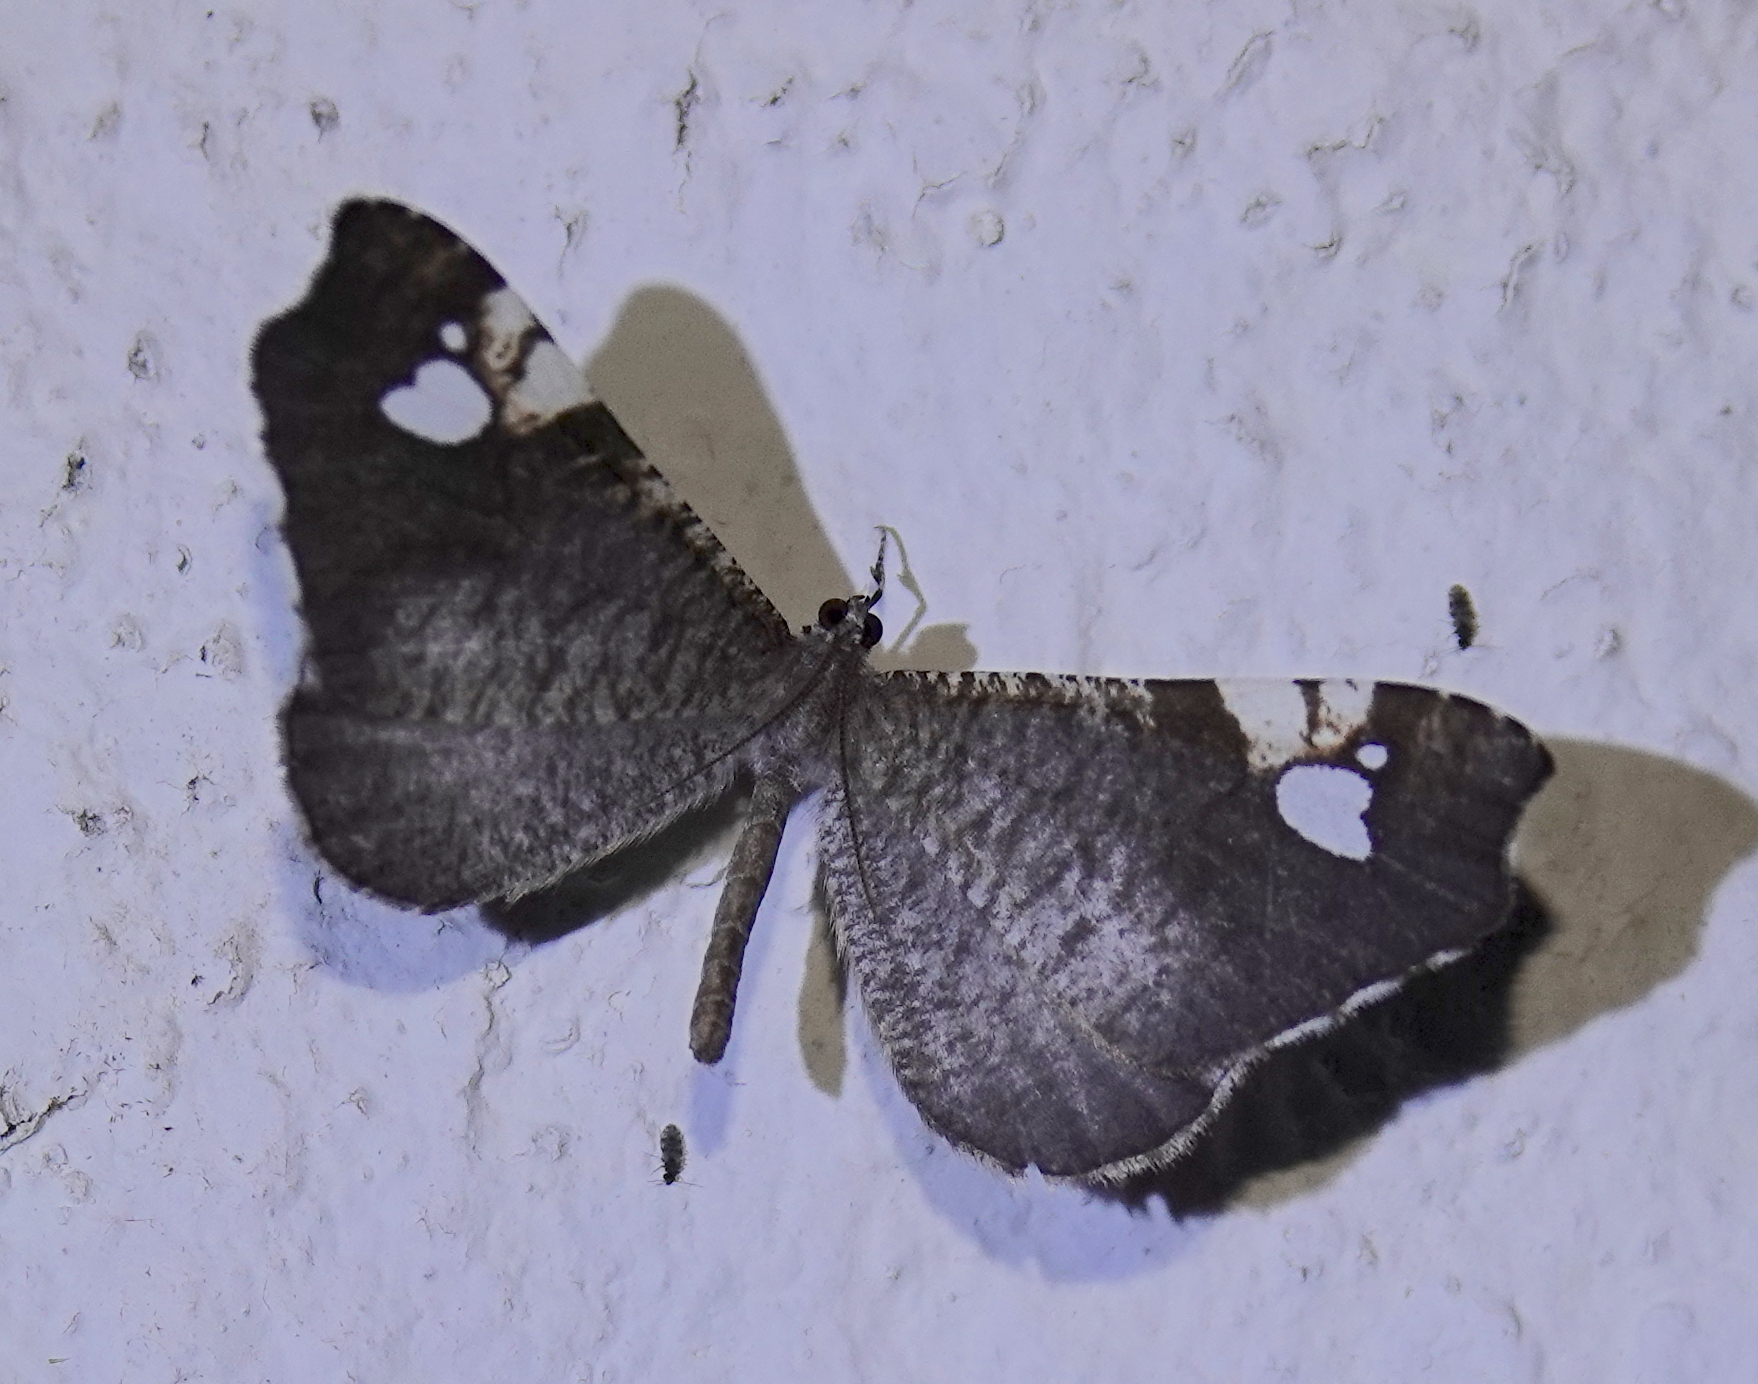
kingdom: Animalia
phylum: Arthropoda
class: Insecta
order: Lepidoptera
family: Hedylidae
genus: Macrosoma
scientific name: Macrosoma subornata
